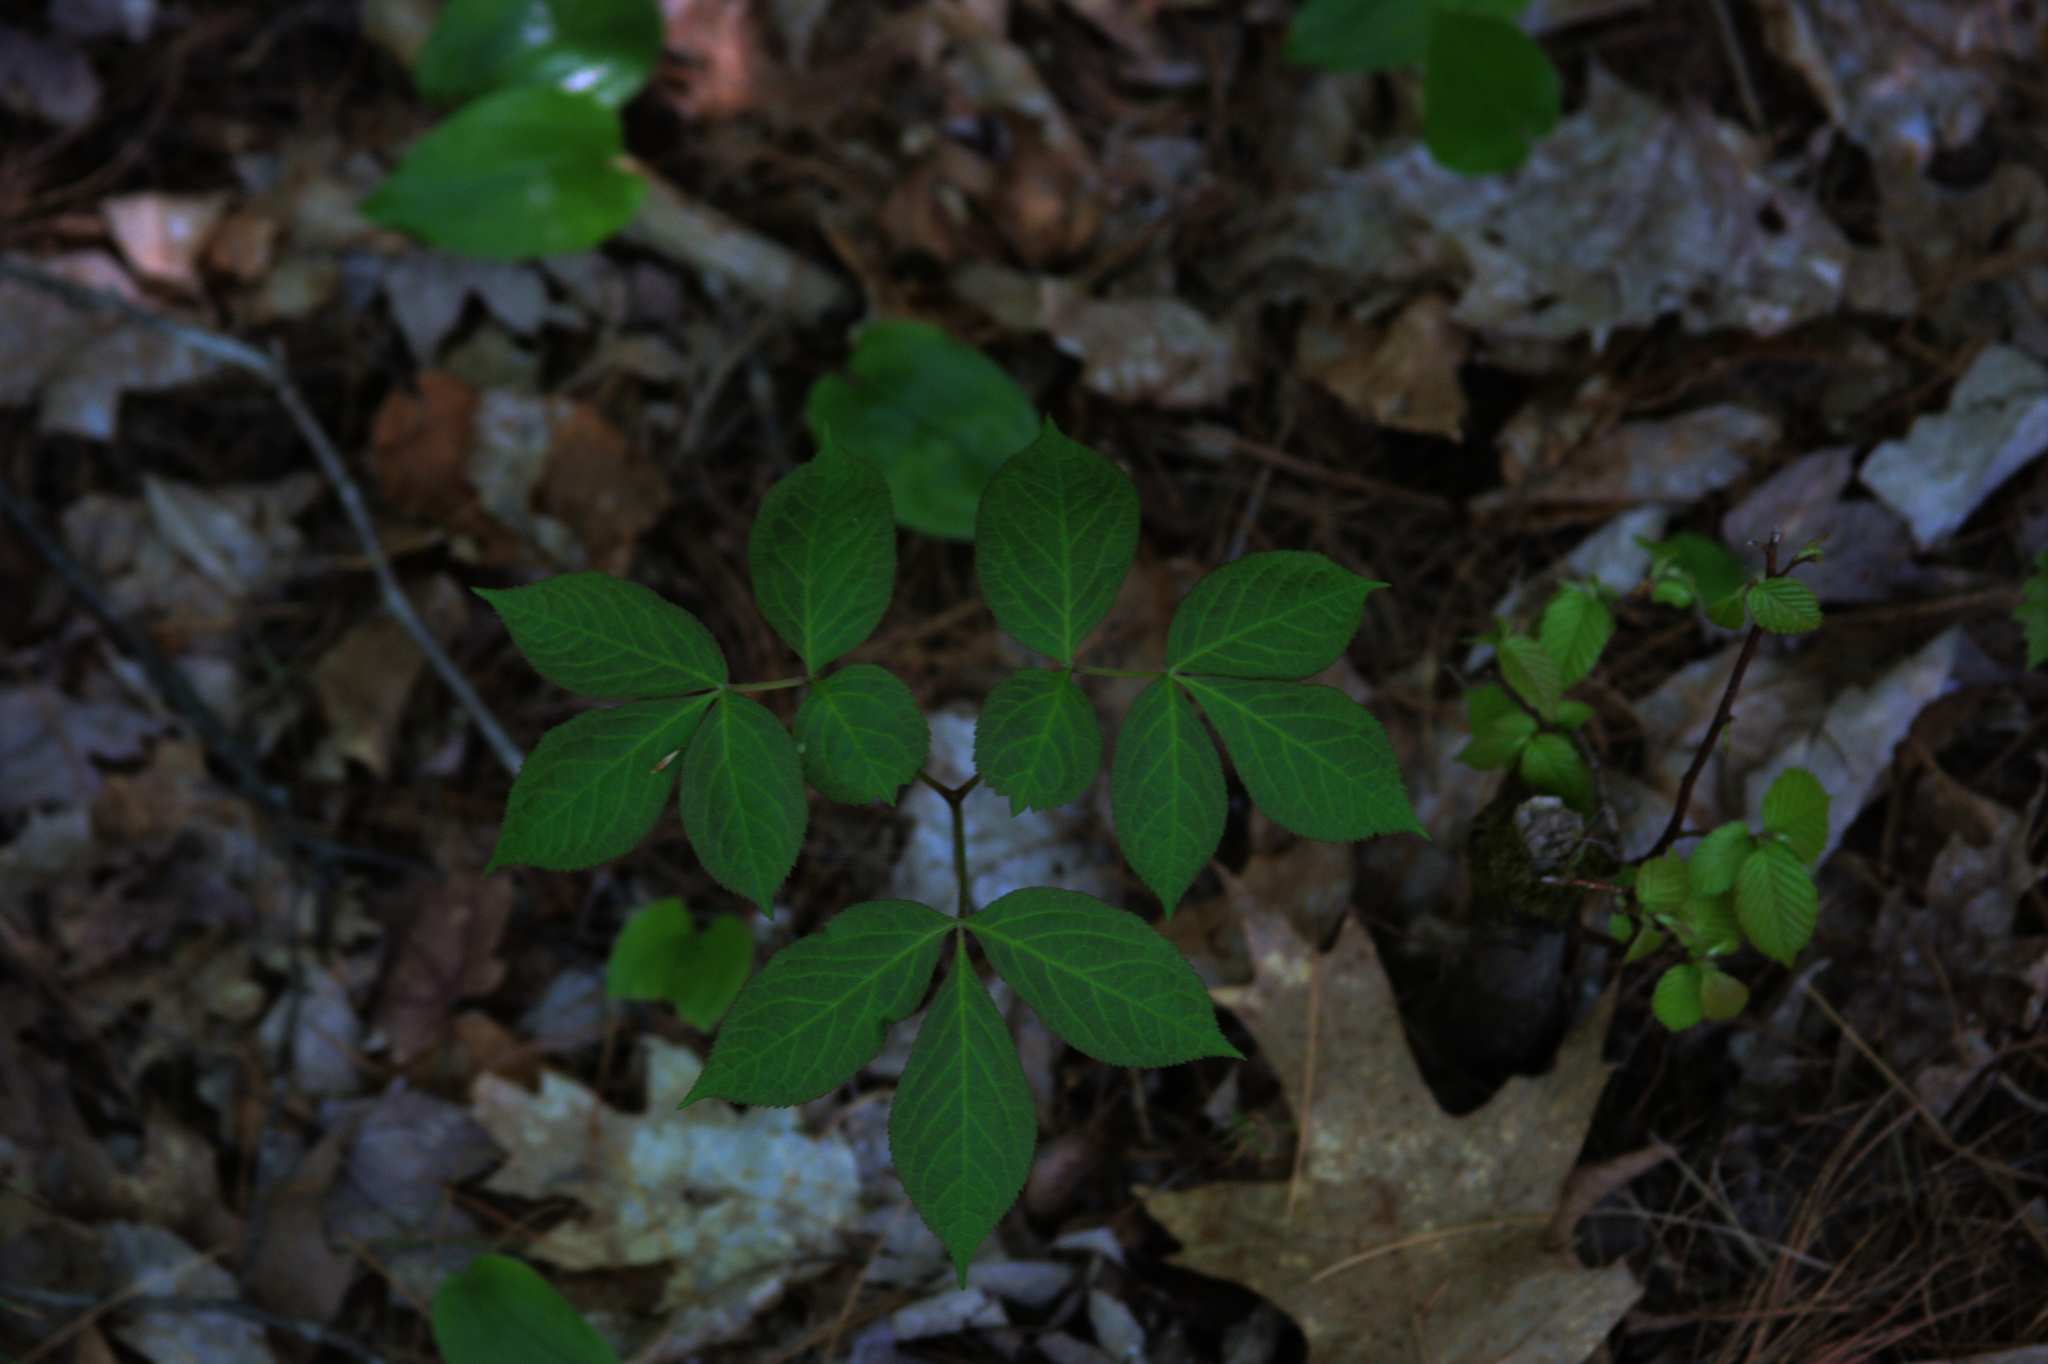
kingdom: Plantae
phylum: Tracheophyta
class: Magnoliopsida
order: Apiales
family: Araliaceae
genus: Aralia
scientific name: Aralia nudicaulis
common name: Wild sarsaparilla
